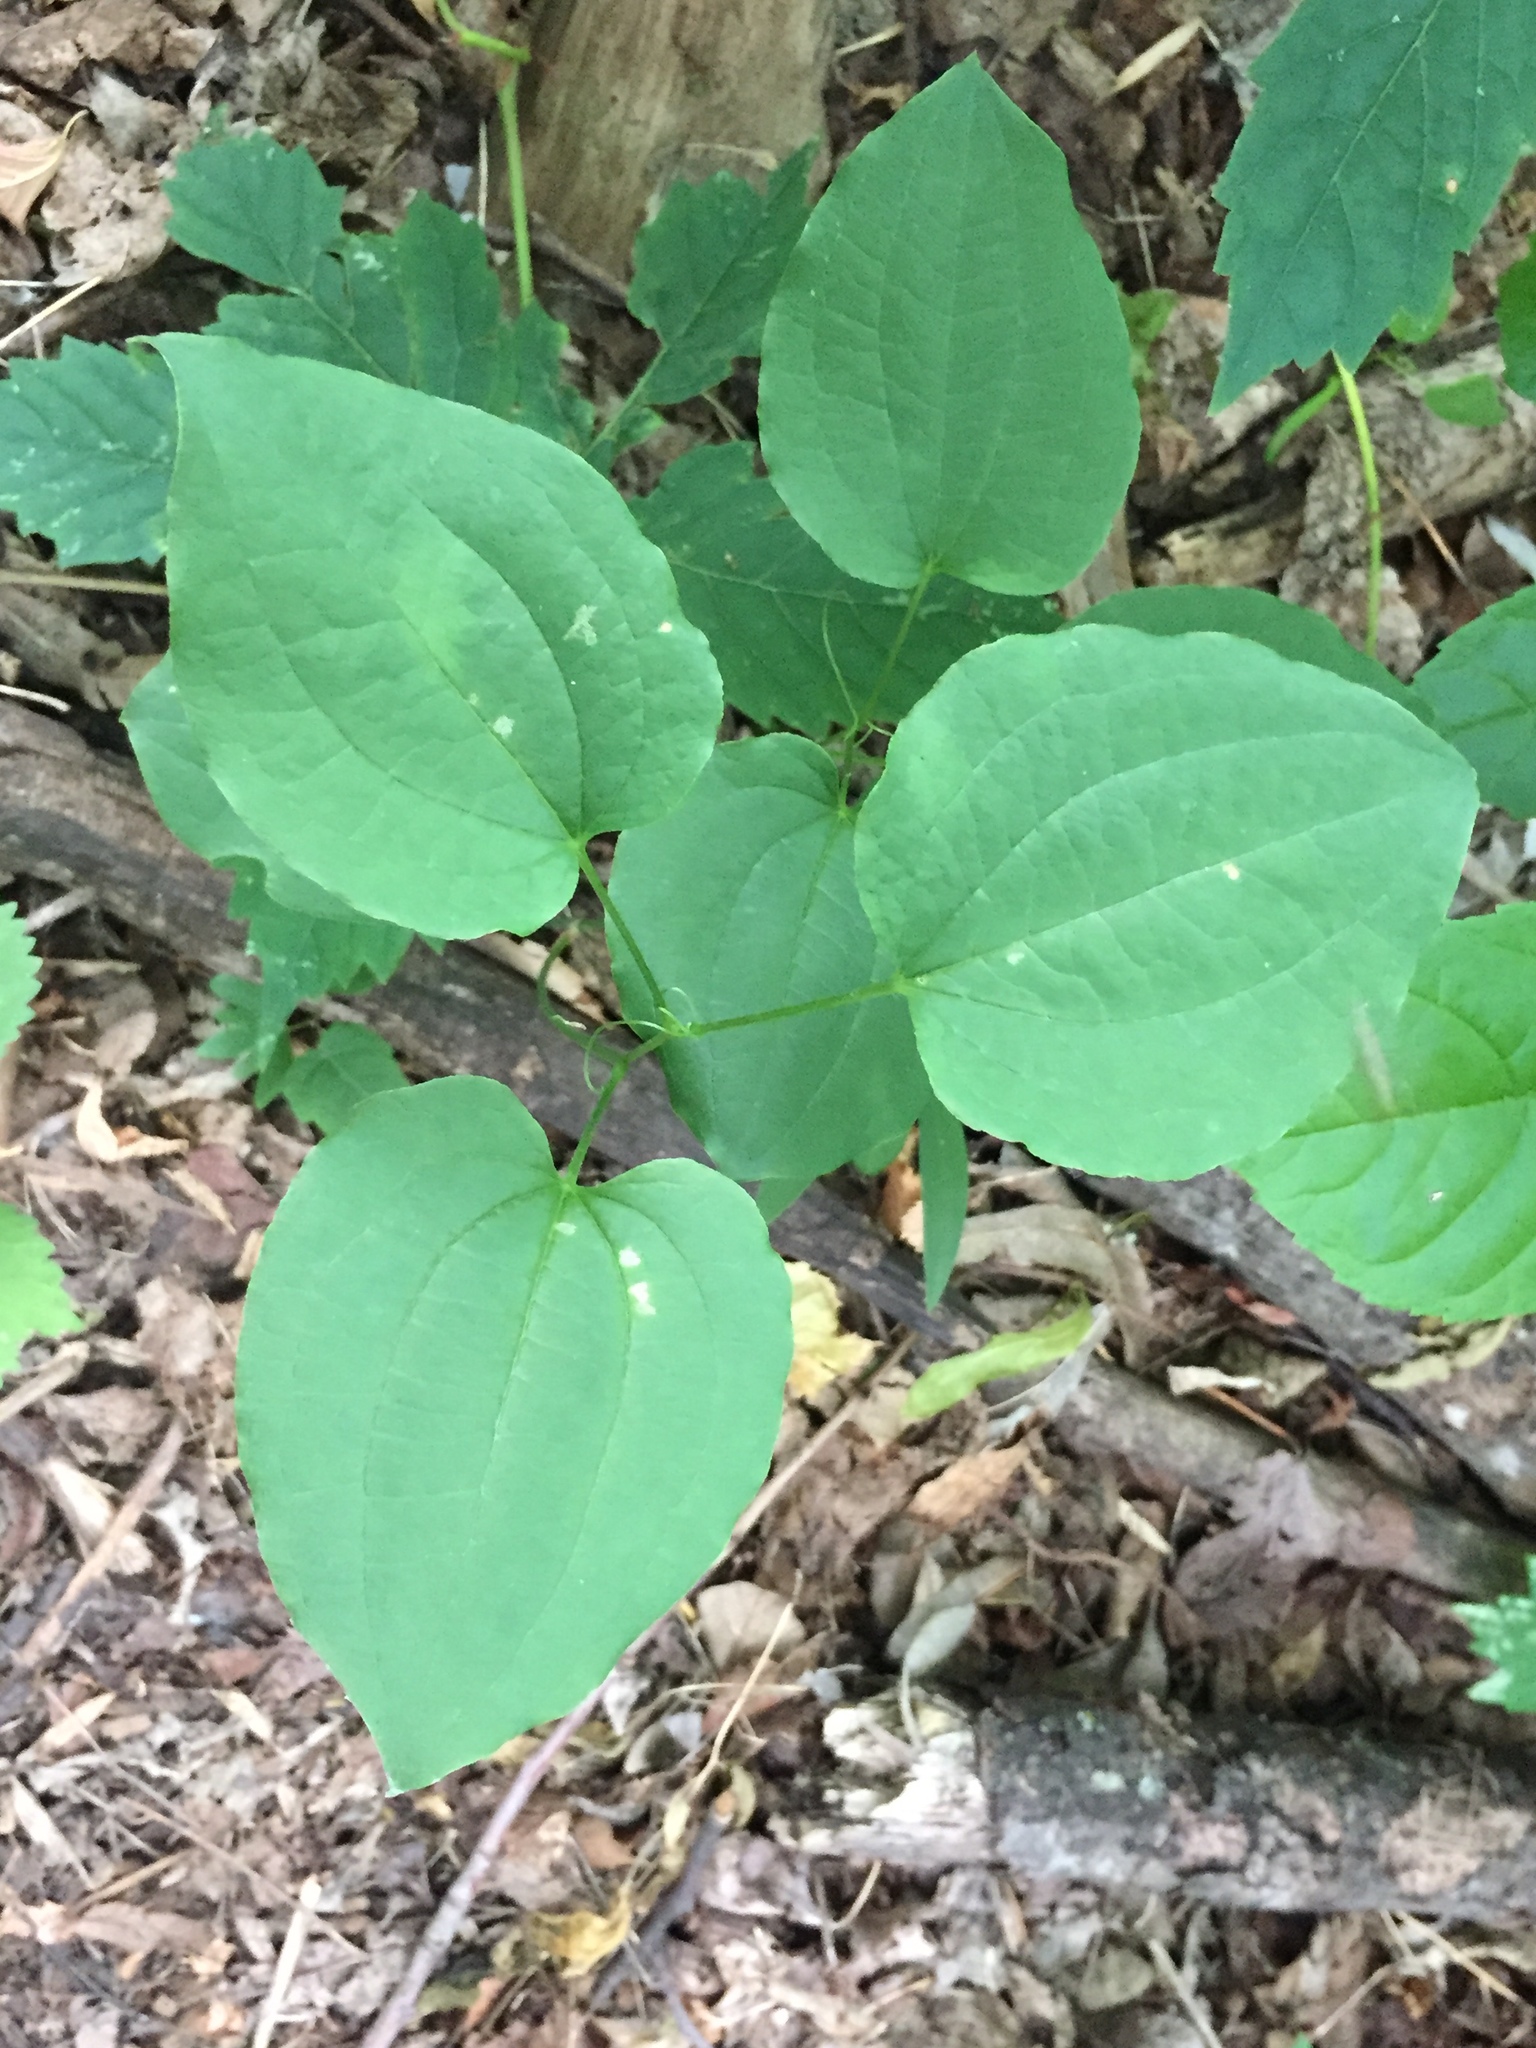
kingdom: Plantae
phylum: Tracheophyta
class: Liliopsida
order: Liliales
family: Smilacaceae
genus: Smilax
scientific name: Smilax lasioneura
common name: Blue ridge carrionflower
